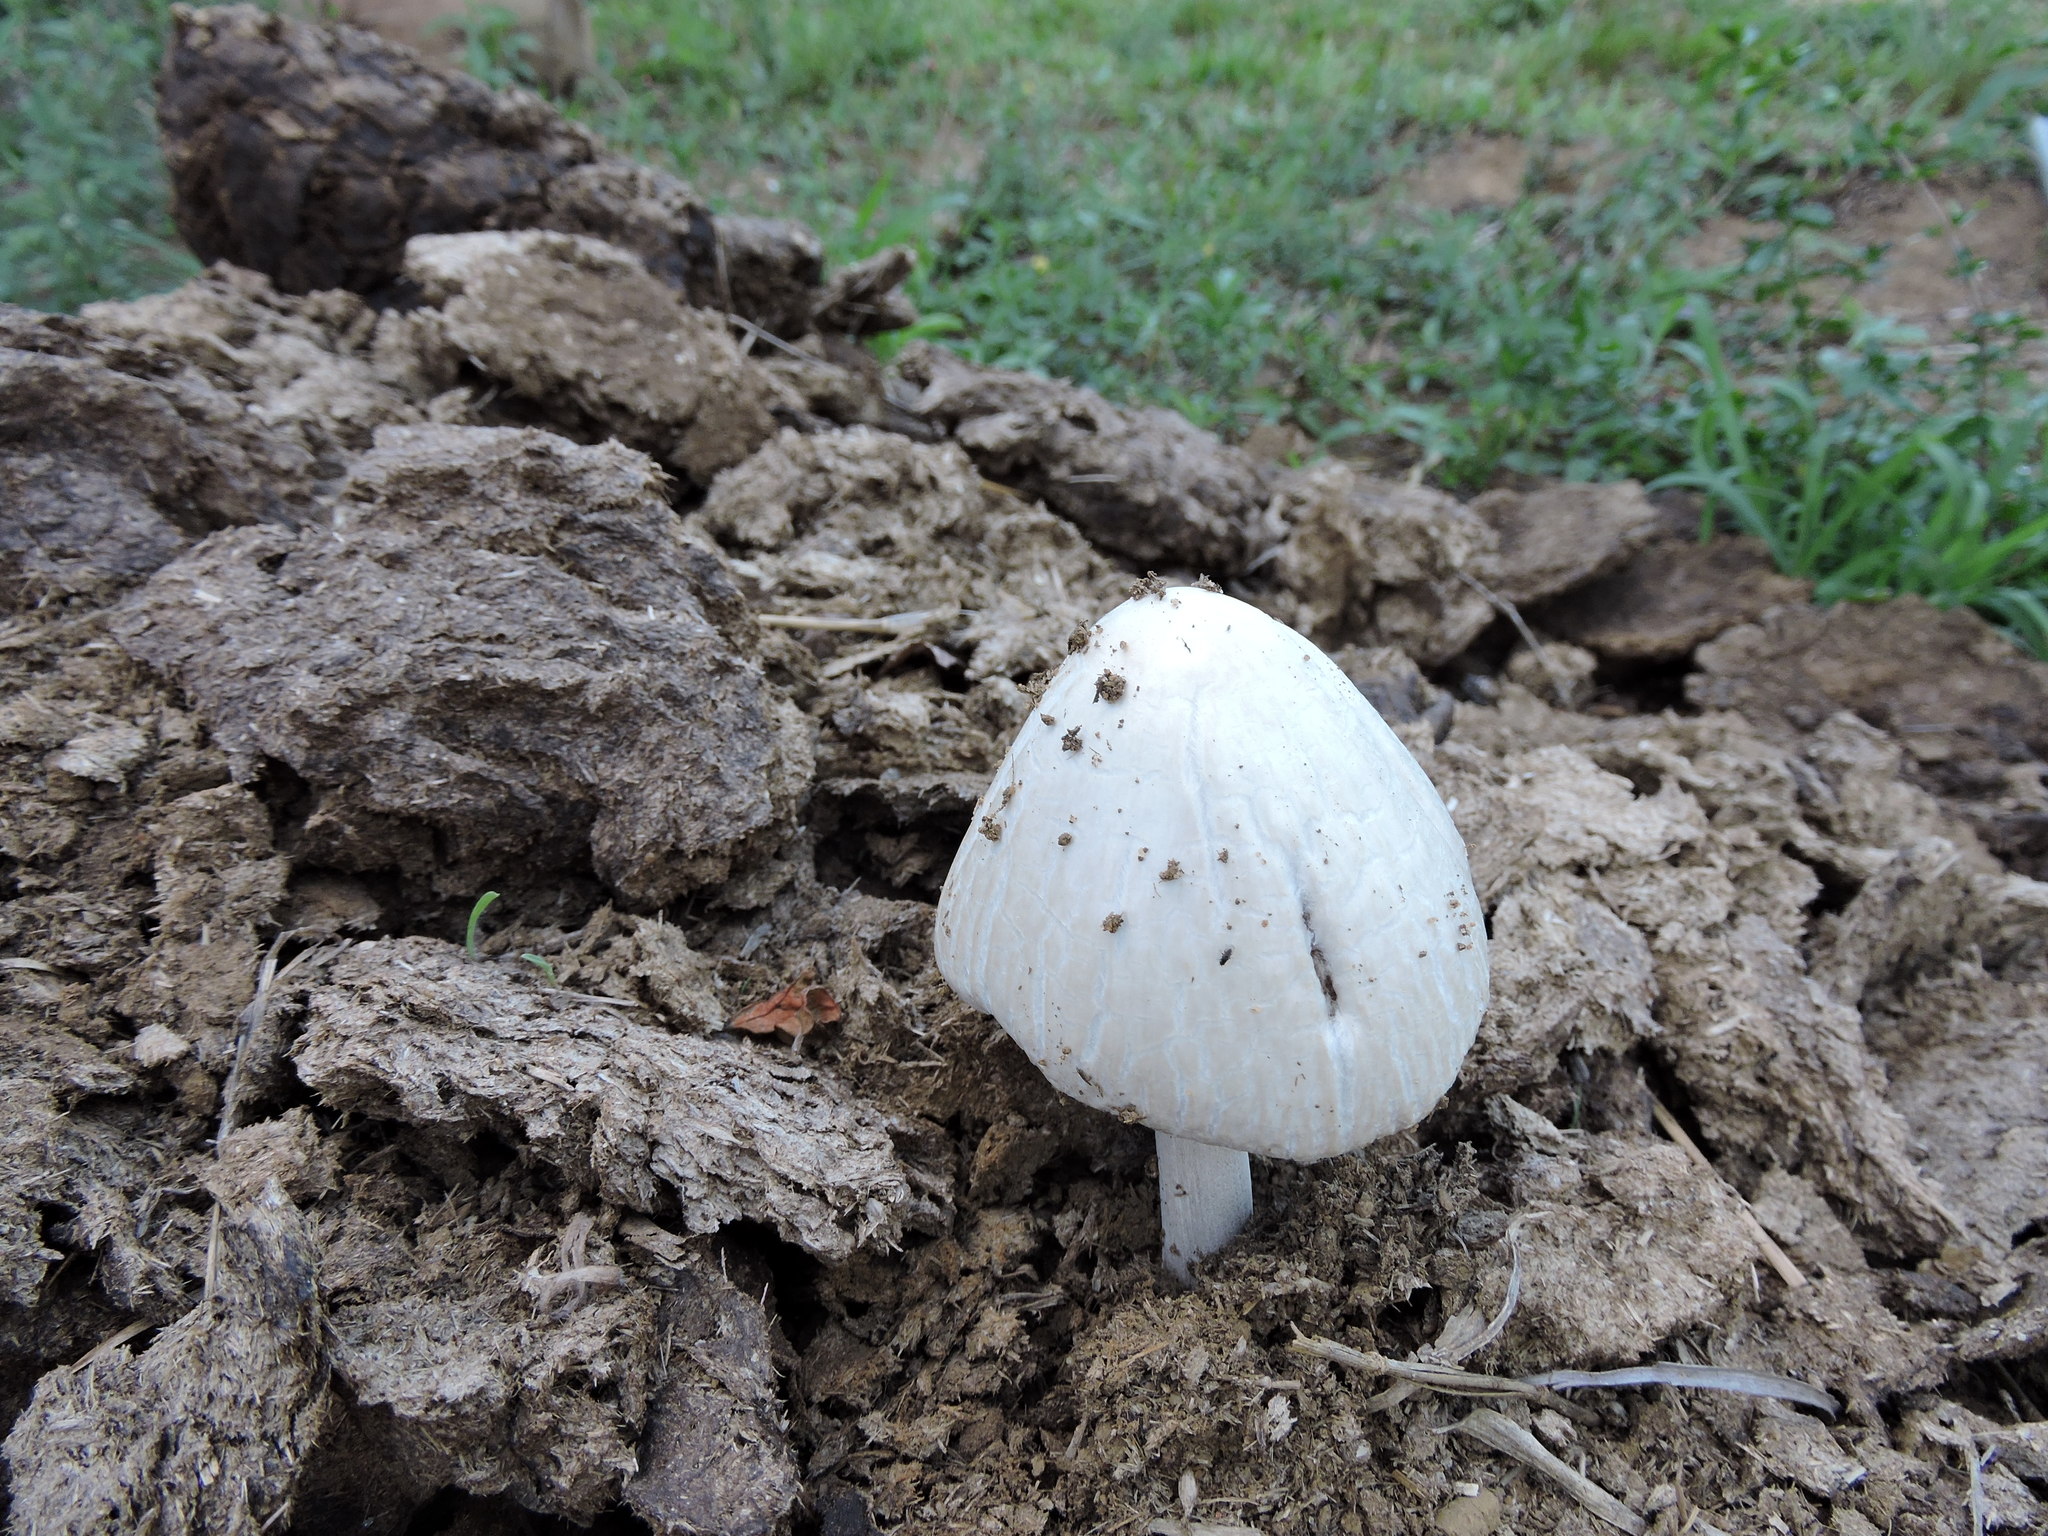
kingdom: Fungi
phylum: Basidiomycota
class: Agaricomycetes
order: Agaricales
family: Bolbitiaceae
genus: Panaeolus
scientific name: Panaeolus antillarum
